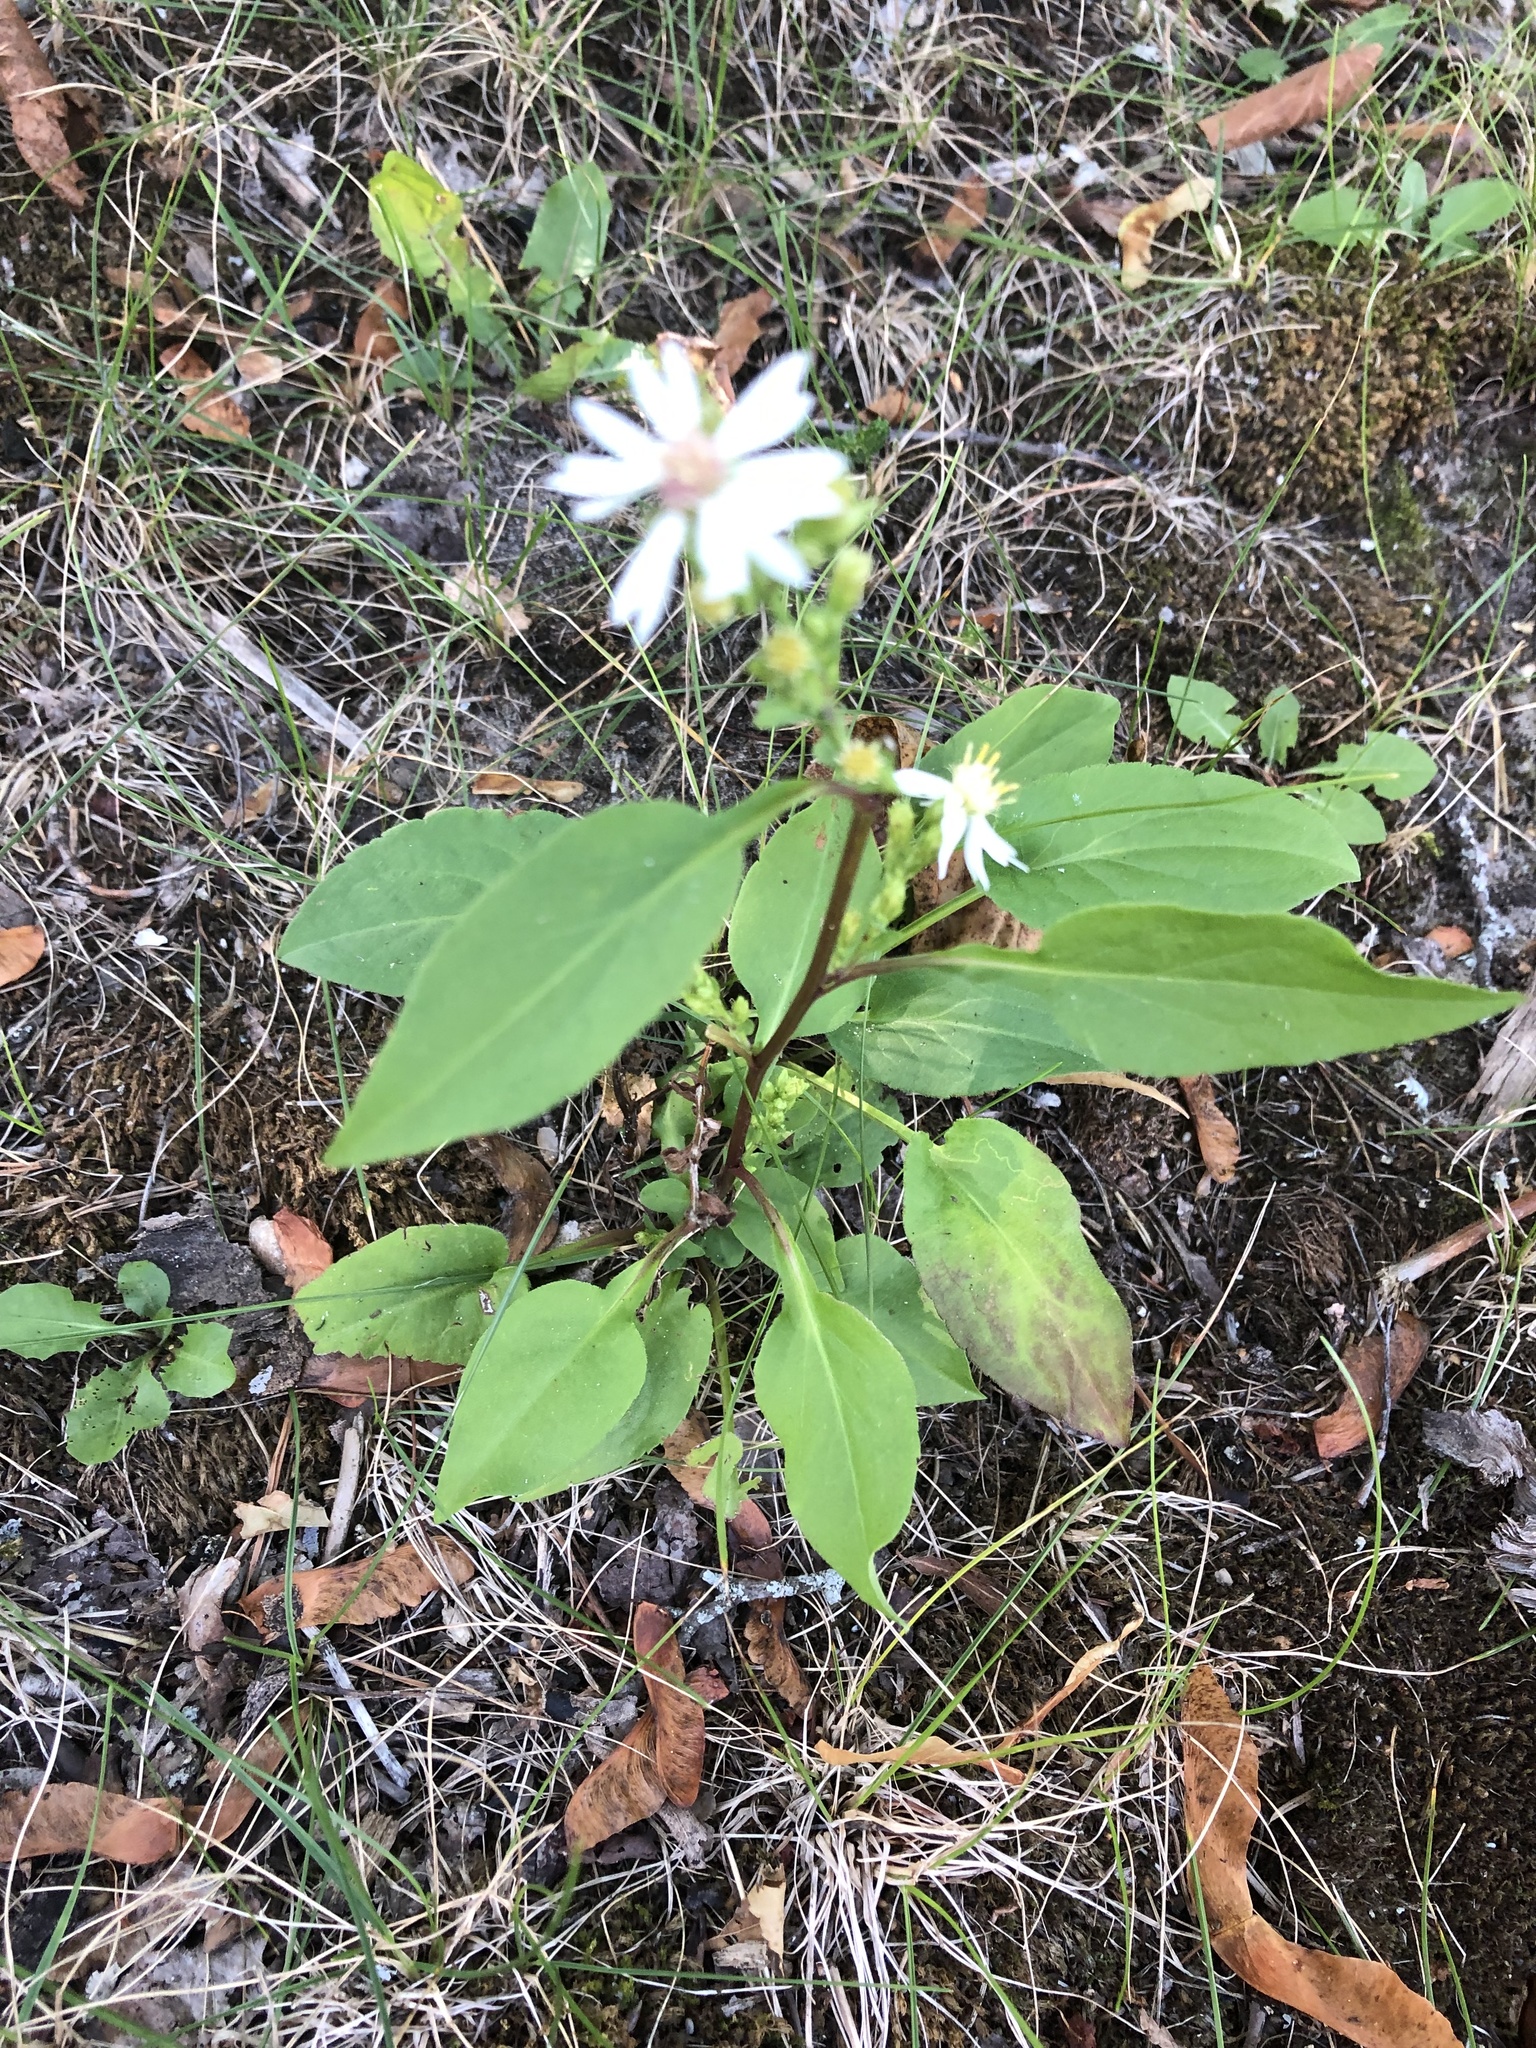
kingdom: Plantae
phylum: Tracheophyta
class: Magnoliopsida
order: Asterales
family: Asteraceae
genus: Symphyotrichum
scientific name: Symphyotrichum urophyllum
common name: Arrow-leaved aster
